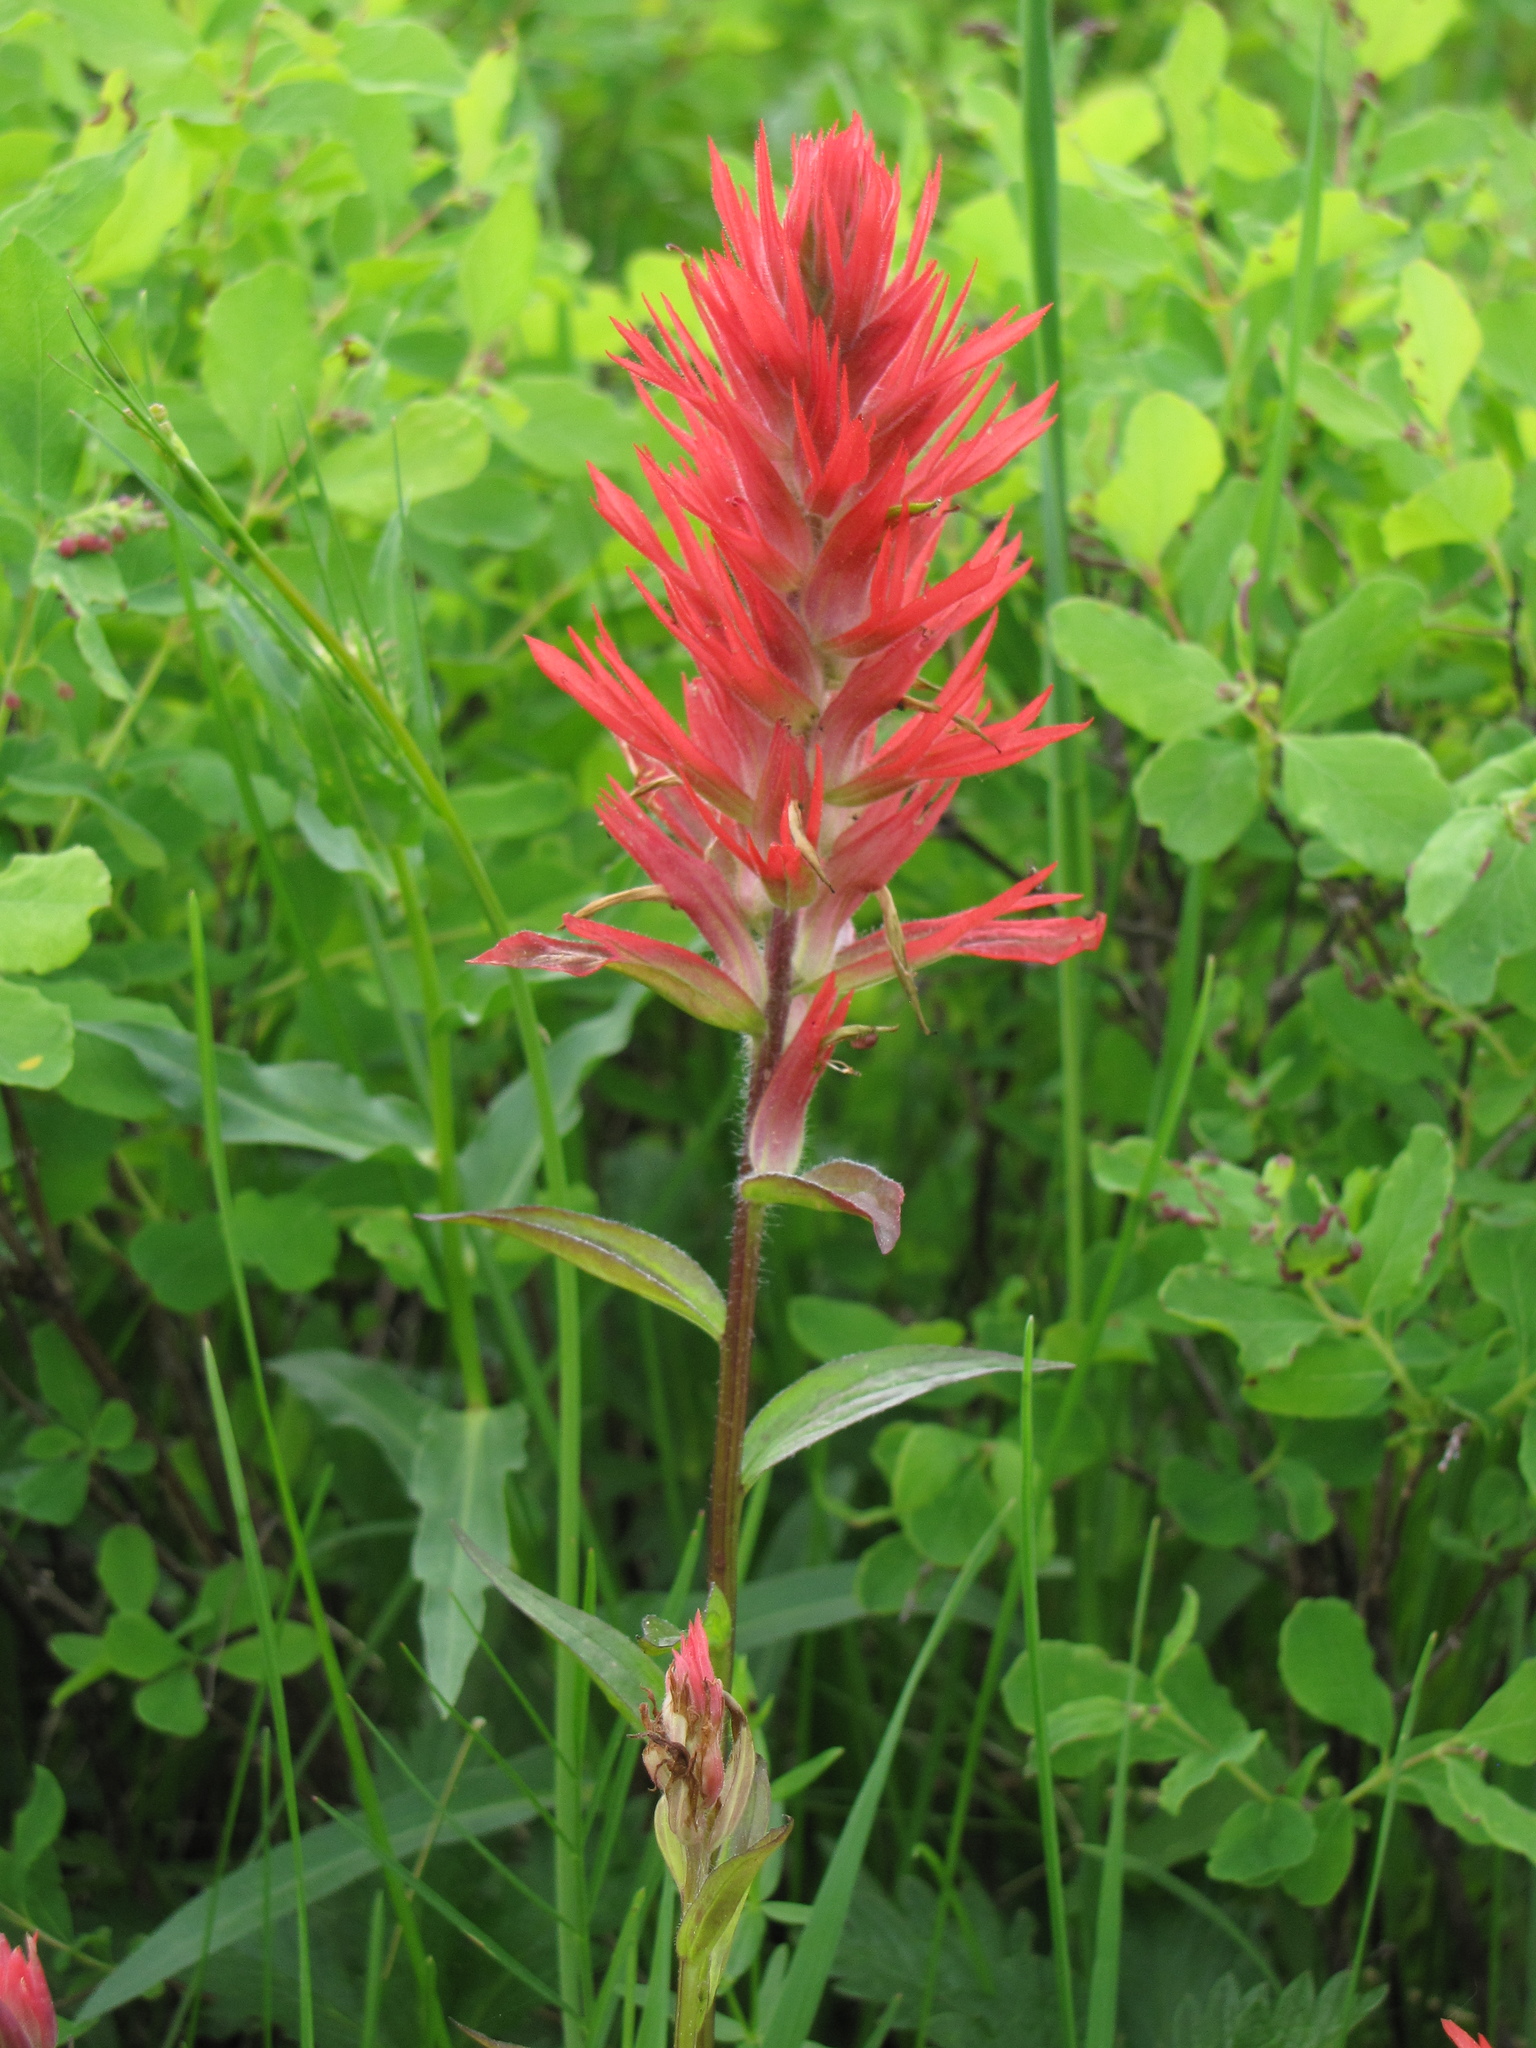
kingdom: Plantae
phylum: Tracheophyta
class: Magnoliopsida
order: Lamiales
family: Orobanchaceae
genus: Castilleja
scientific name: Castilleja miniata
